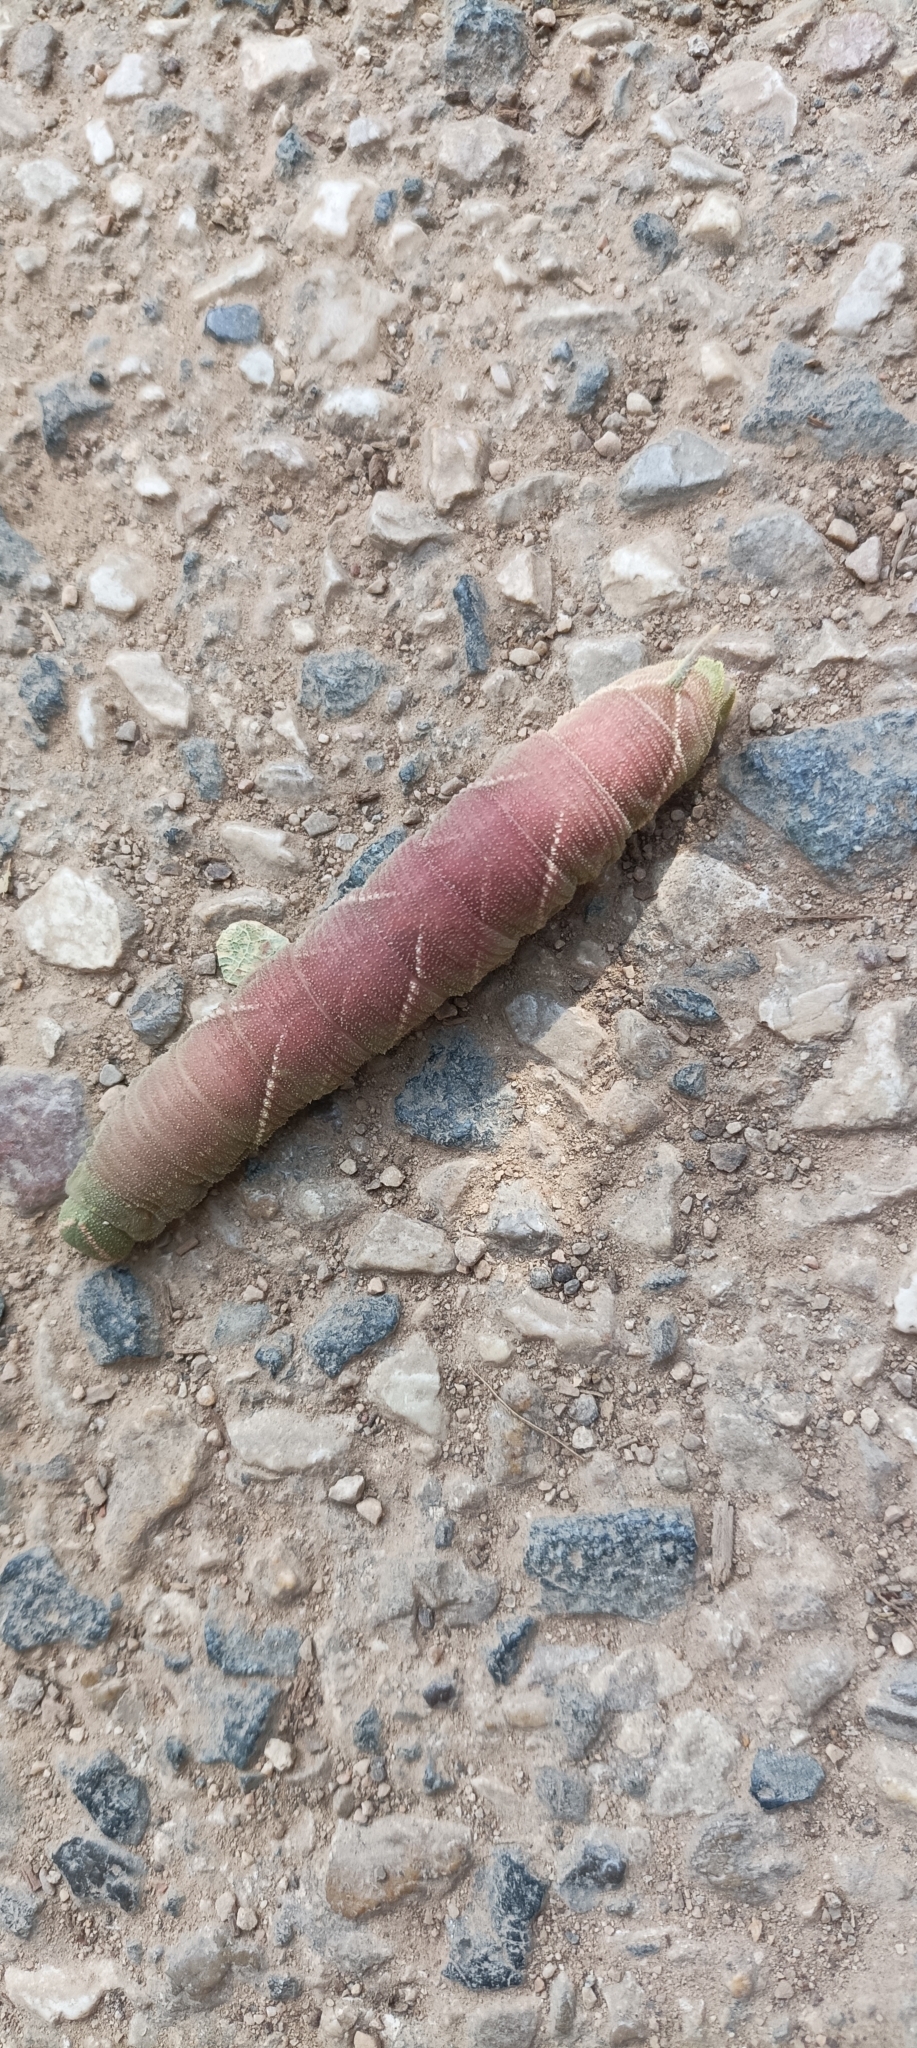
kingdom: Animalia
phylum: Arthropoda
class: Insecta
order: Lepidoptera
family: Sphingidae
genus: Marumba
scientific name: Marumba quercus
